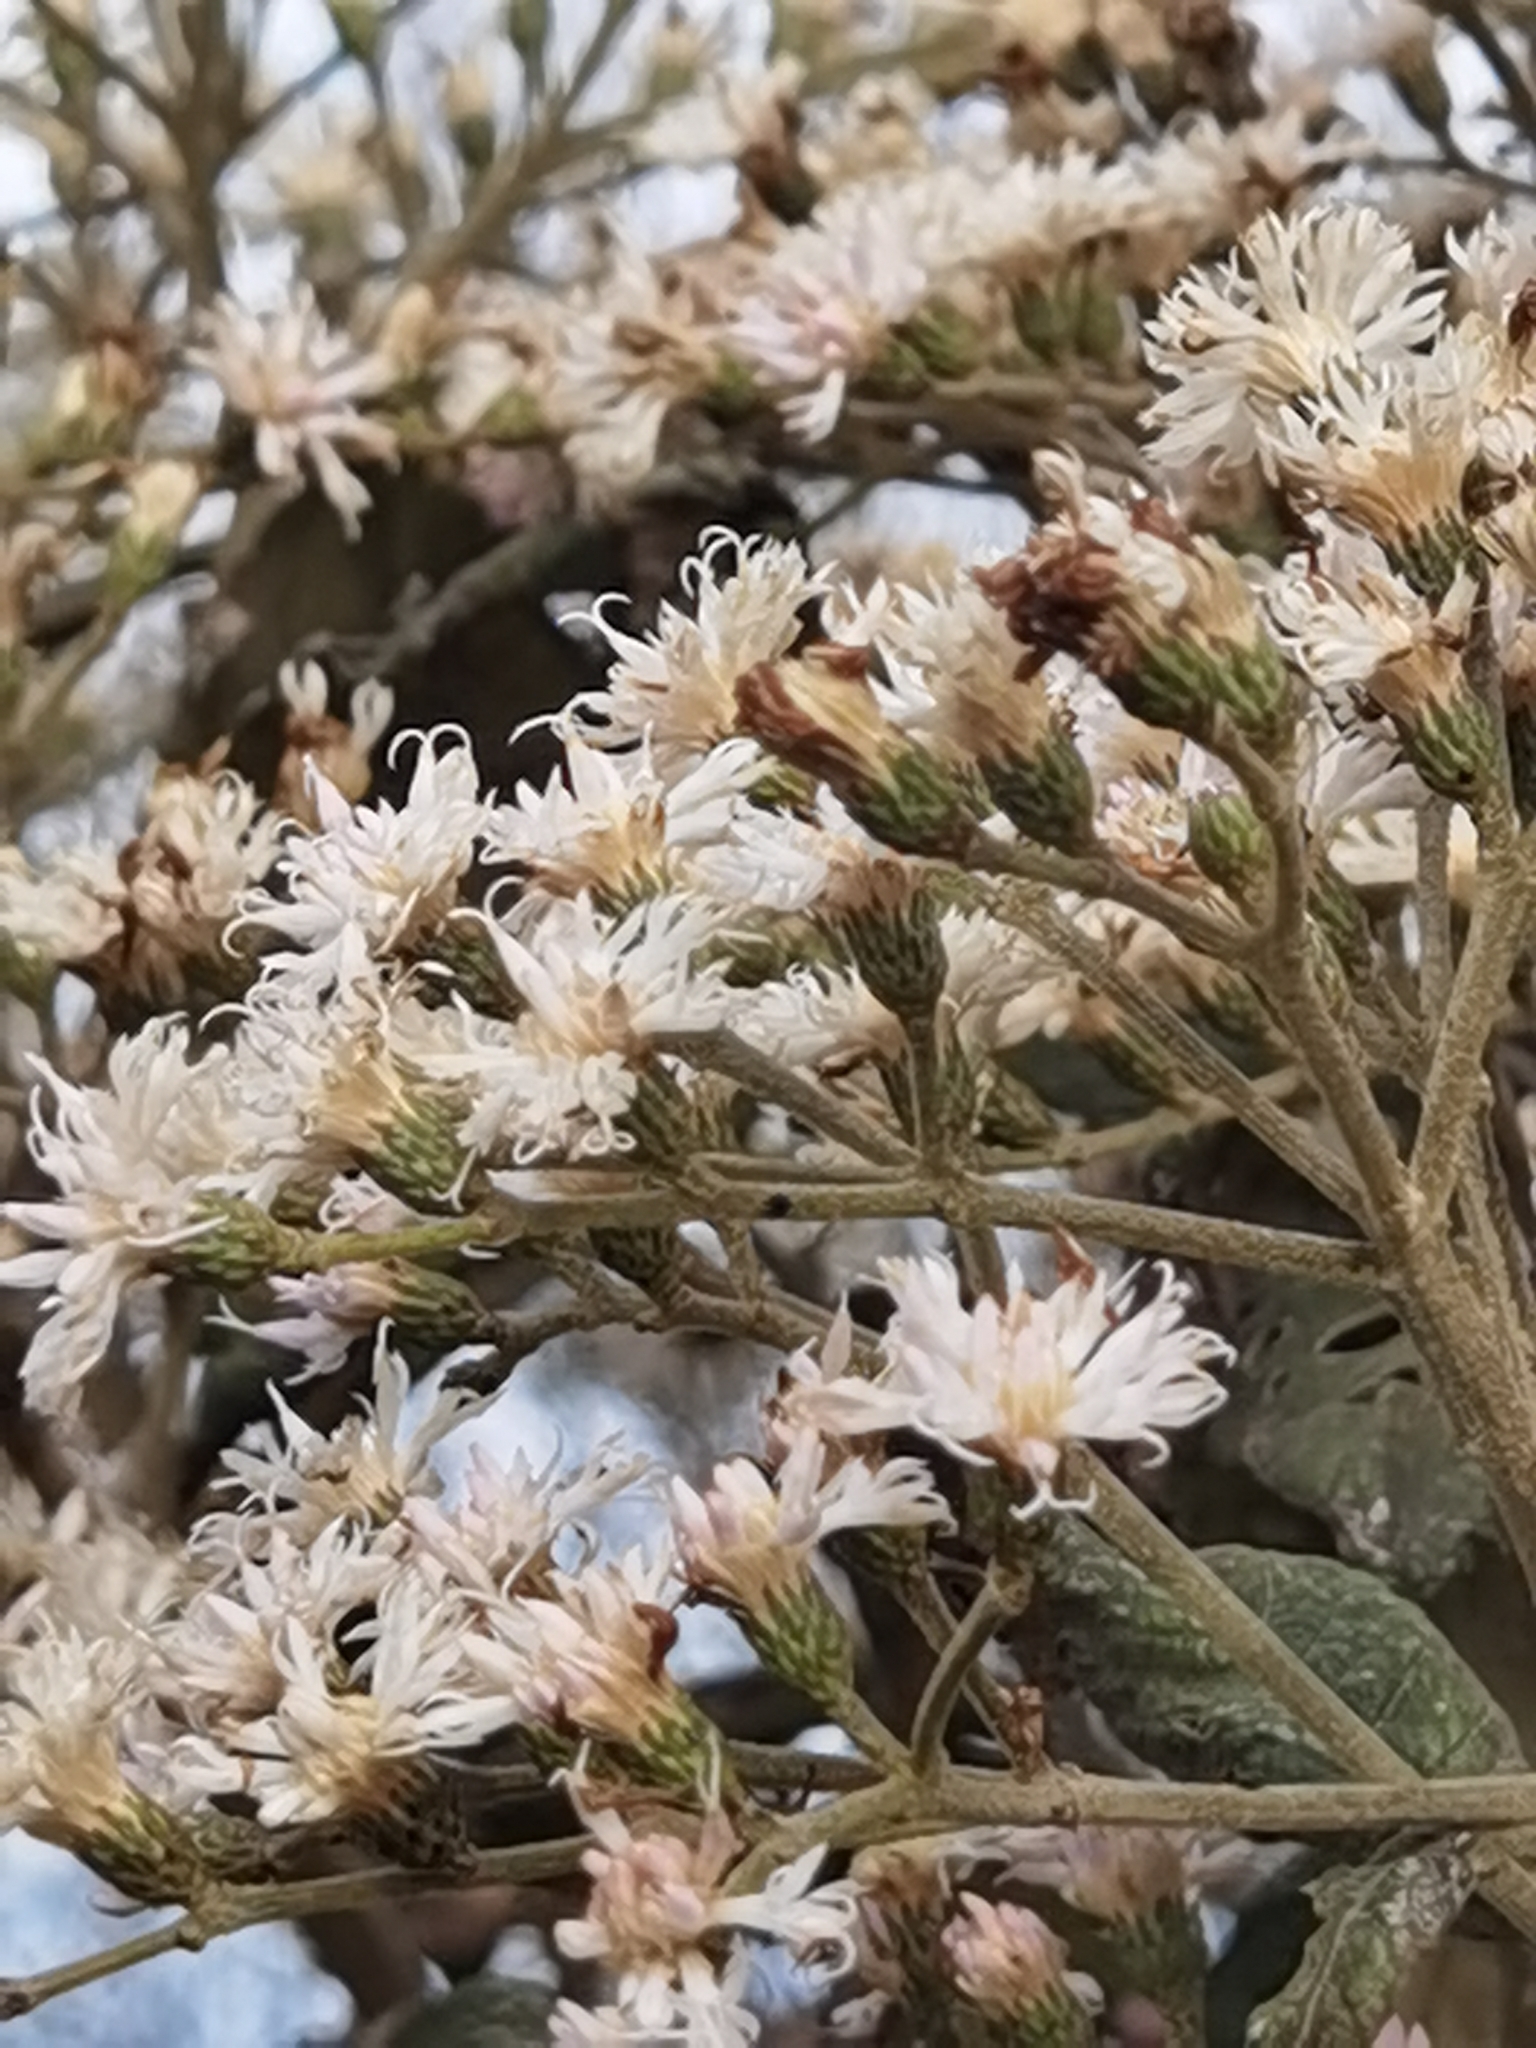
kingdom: Plantae
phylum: Tracheophyta
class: Magnoliopsida
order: Asterales
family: Asteraceae
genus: Vernonanthura
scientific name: Vernonanthura patens
